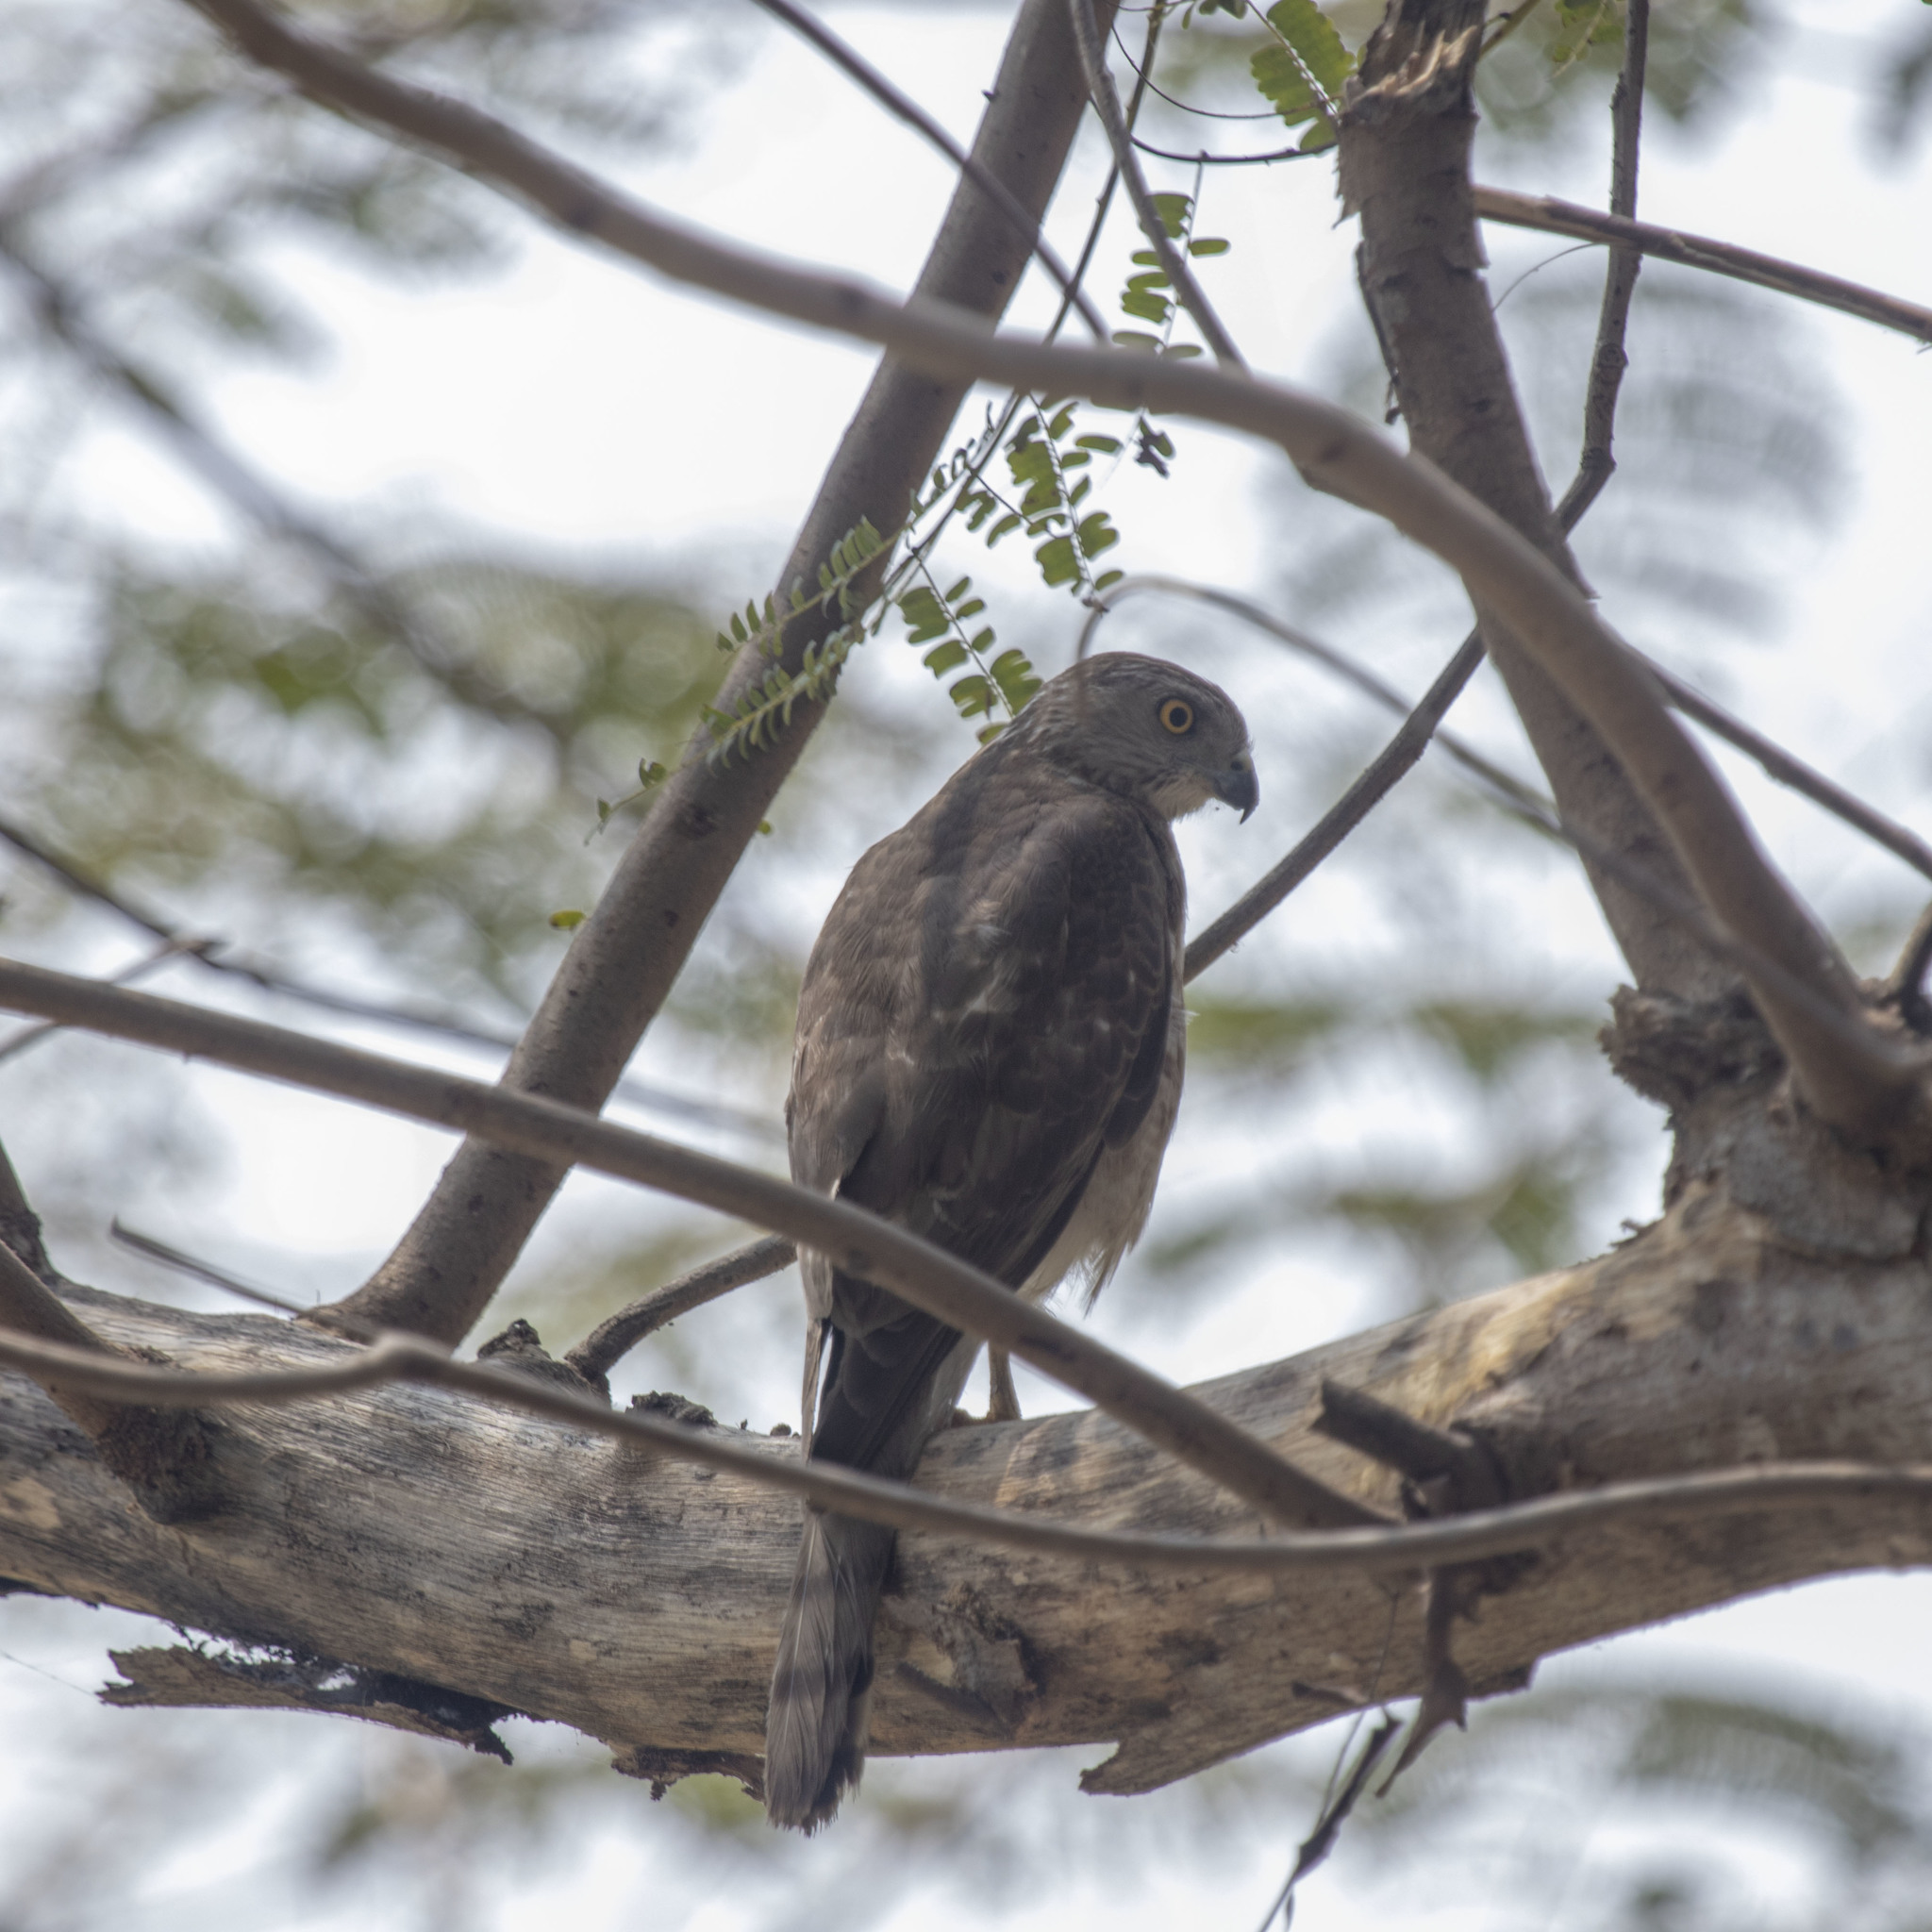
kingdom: Animalia
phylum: Chordata
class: Aves
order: Accipitriformes
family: Accipitridae
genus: Accipiter
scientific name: Accipiter badius
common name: Shikra
